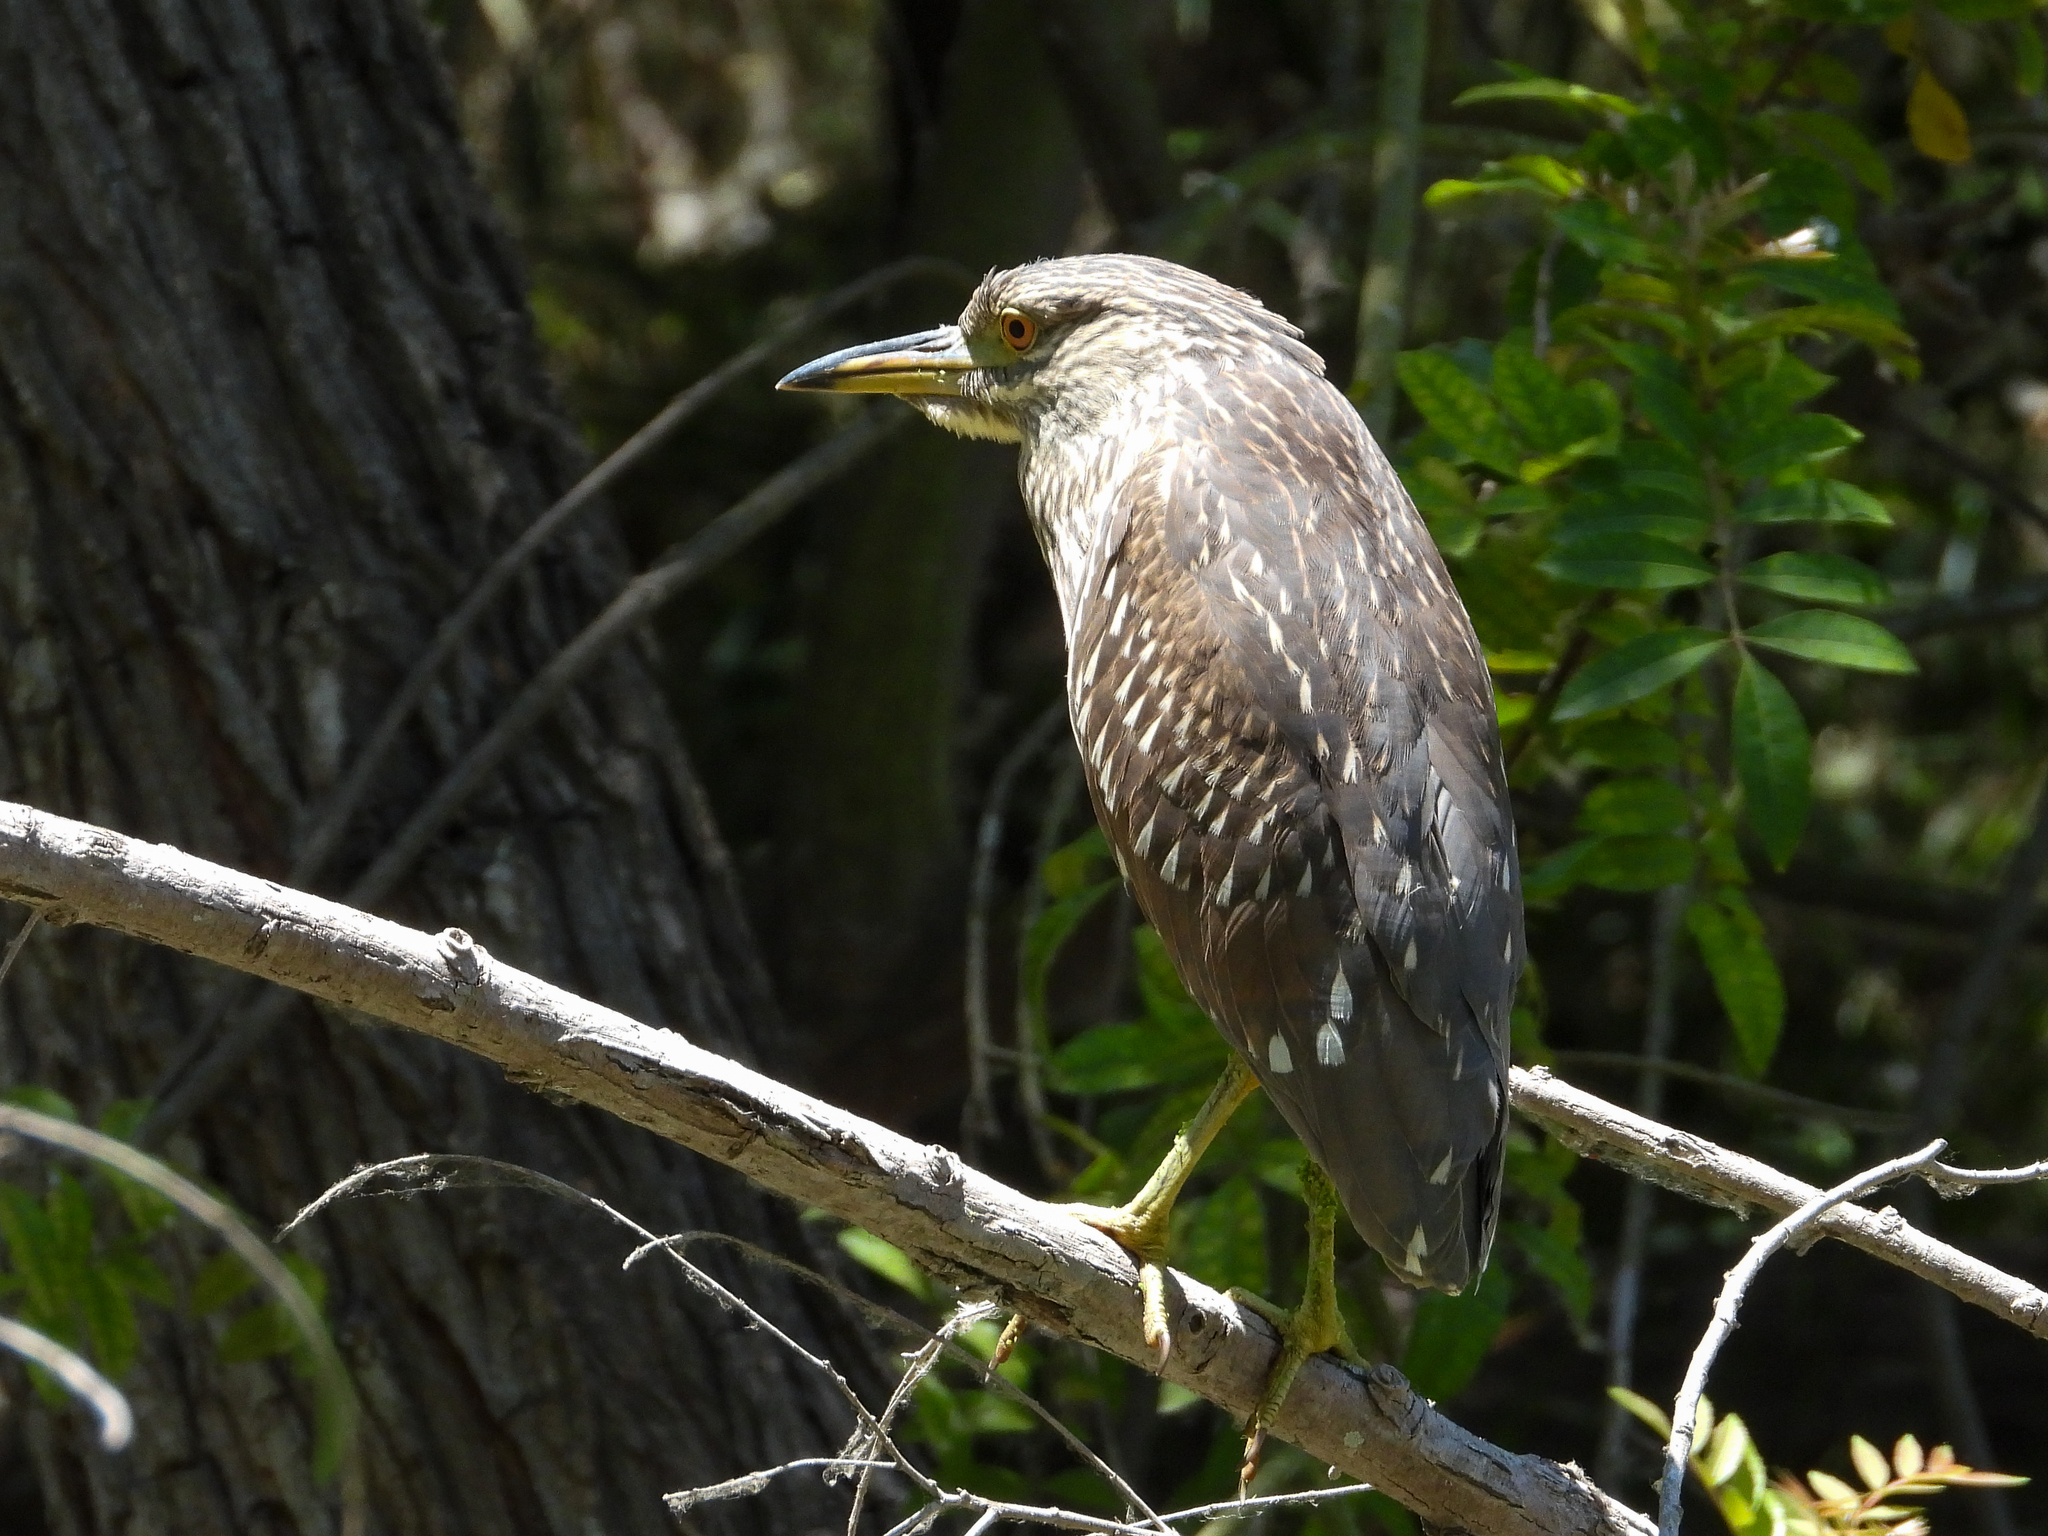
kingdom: Animalia
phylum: Chordata
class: Aves
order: Pelecaniformes
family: Ardeidae
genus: Nycticorax
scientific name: Nycticorax nycticorax
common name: Black-crowned night heron
